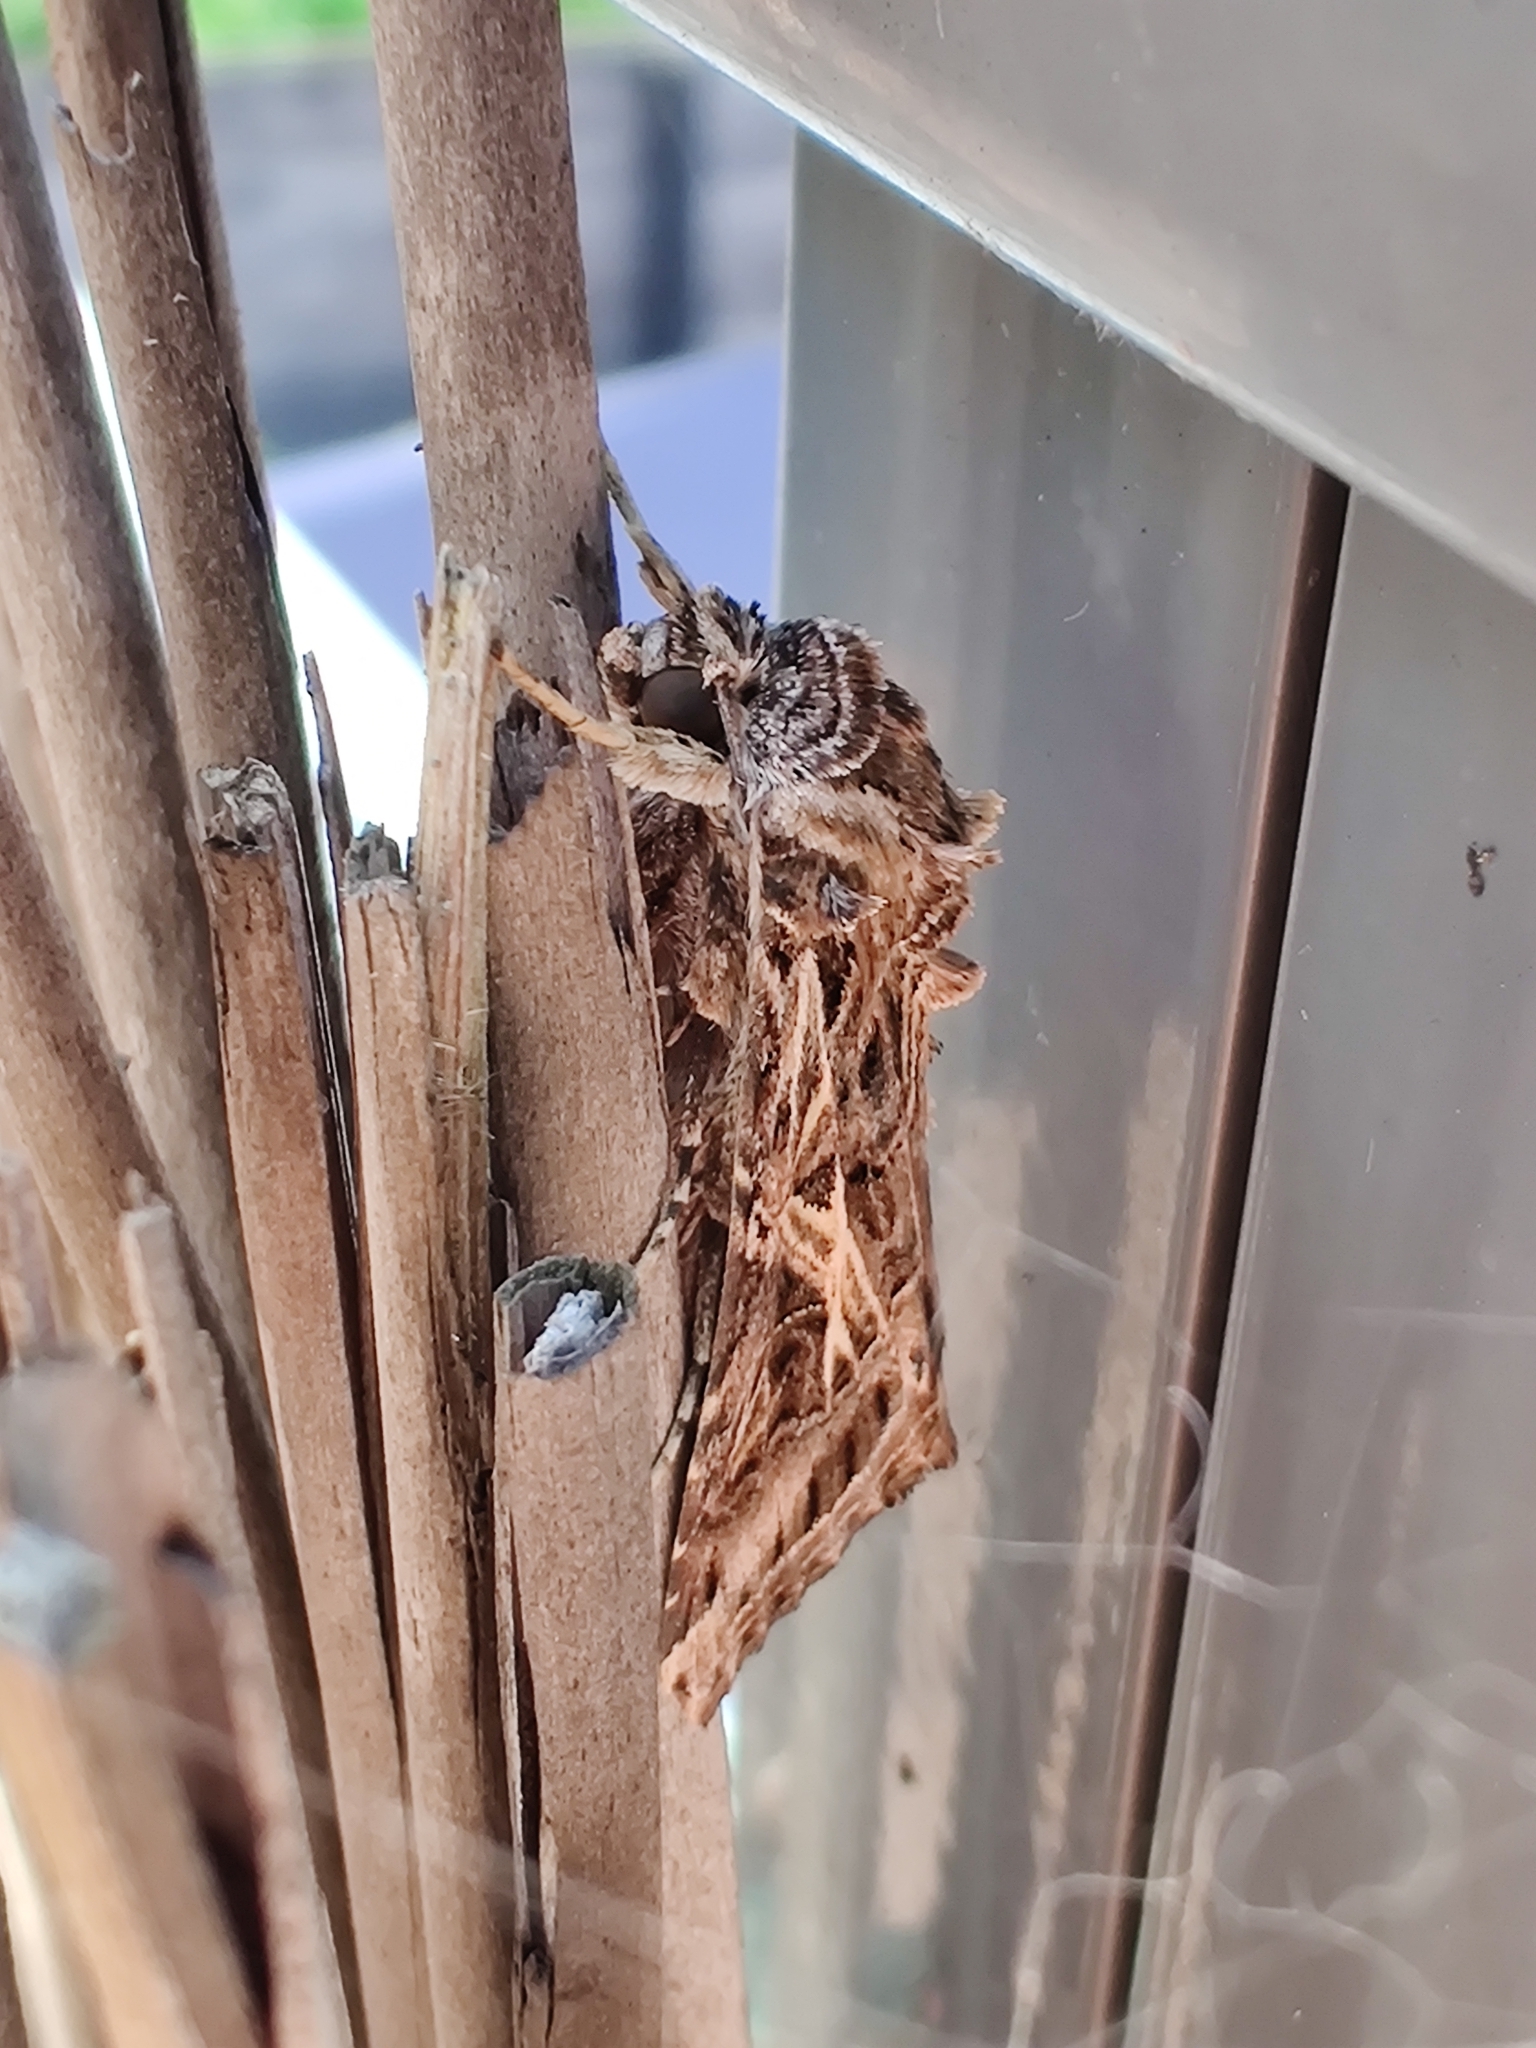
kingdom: Animalia
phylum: Arthropoda
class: Insecta
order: Lepidoptera
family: Noctuidae
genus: Spodoptera
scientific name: Spodoptera litura
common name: Asian cotton leafworm
